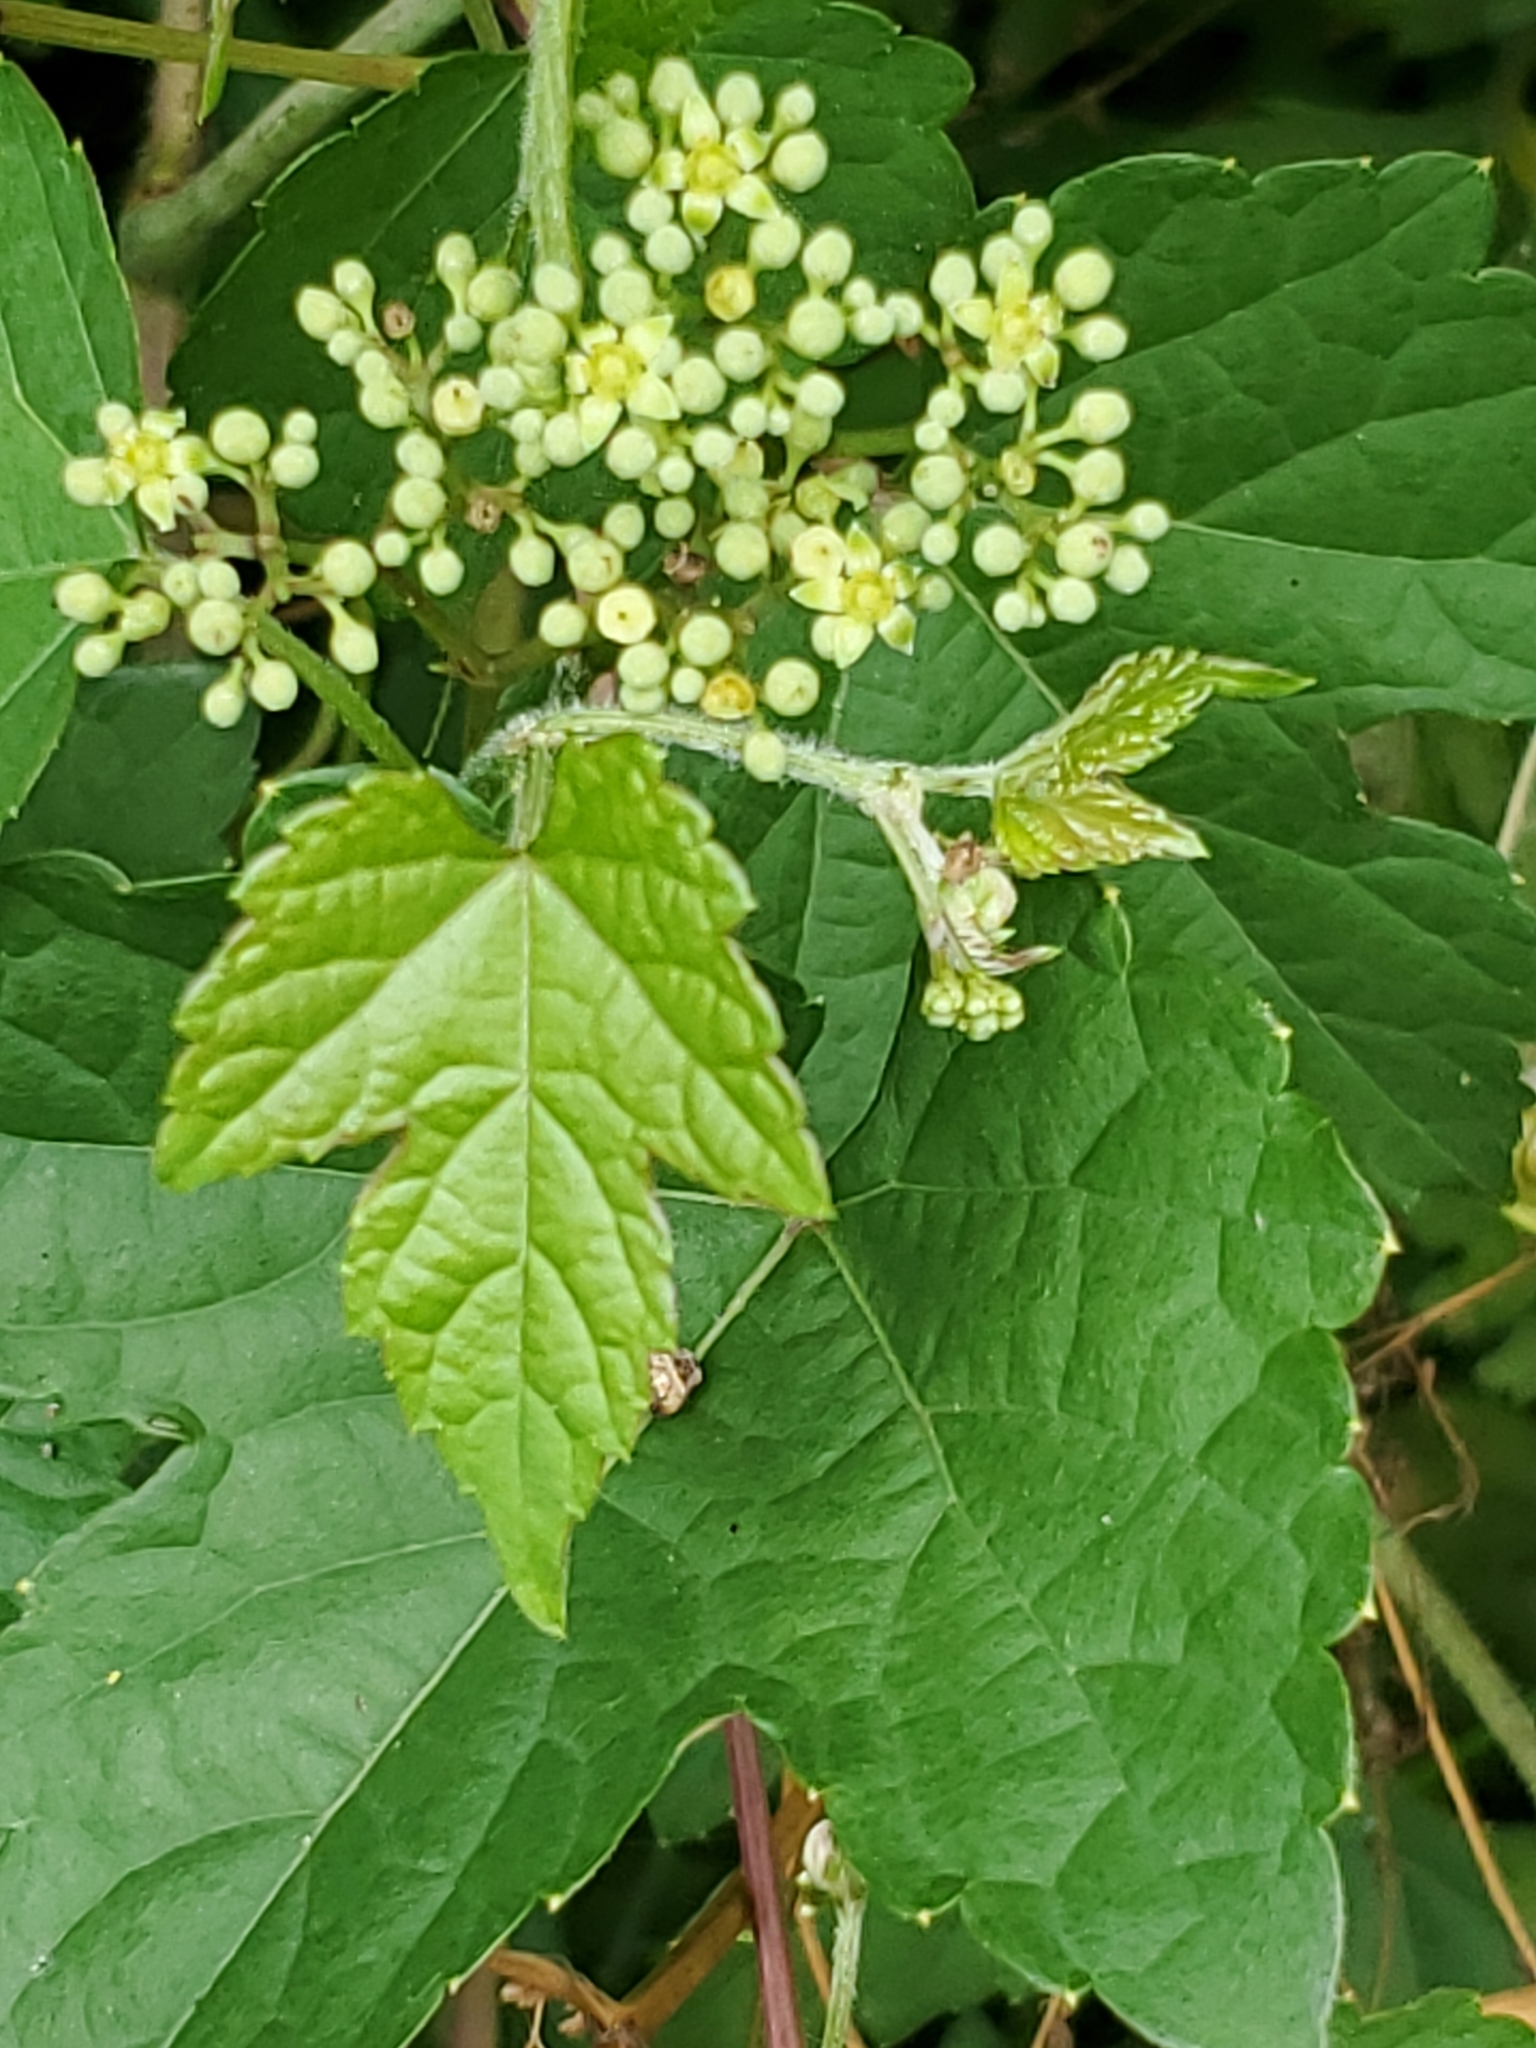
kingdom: Plantae
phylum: Tracheophyta
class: Magnoliopsida
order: Vitales
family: Vitaceae
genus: Ampelopsis
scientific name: Ampelopsis glandulosa
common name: Amur peppervine
